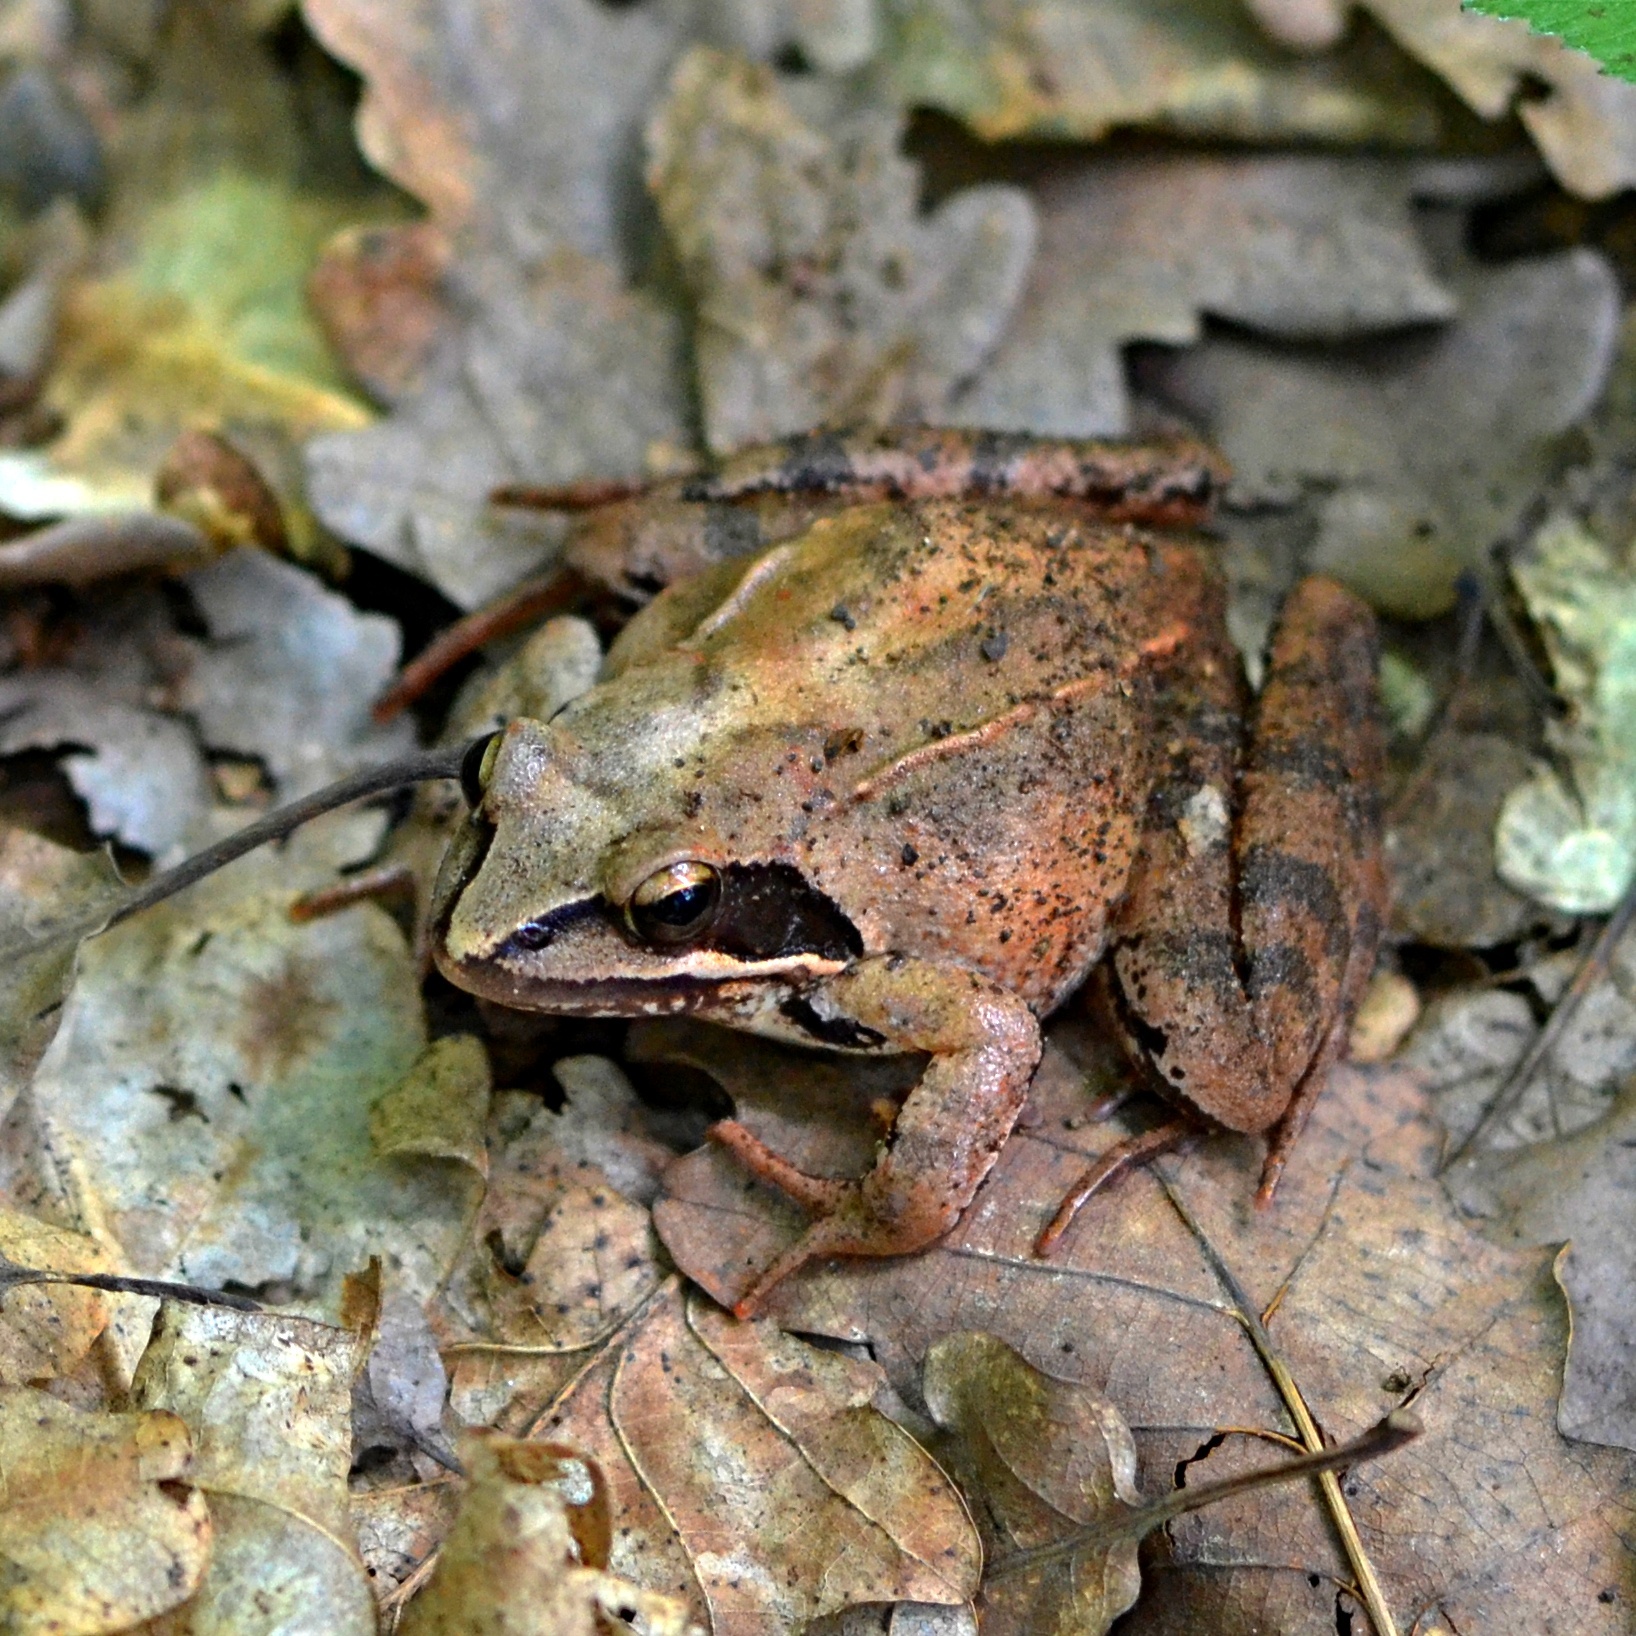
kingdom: Animalia
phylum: Chordata
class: Amphibia
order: Anura
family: Ranidae
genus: Rana
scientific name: Rana dalmatina
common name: Agile frog
